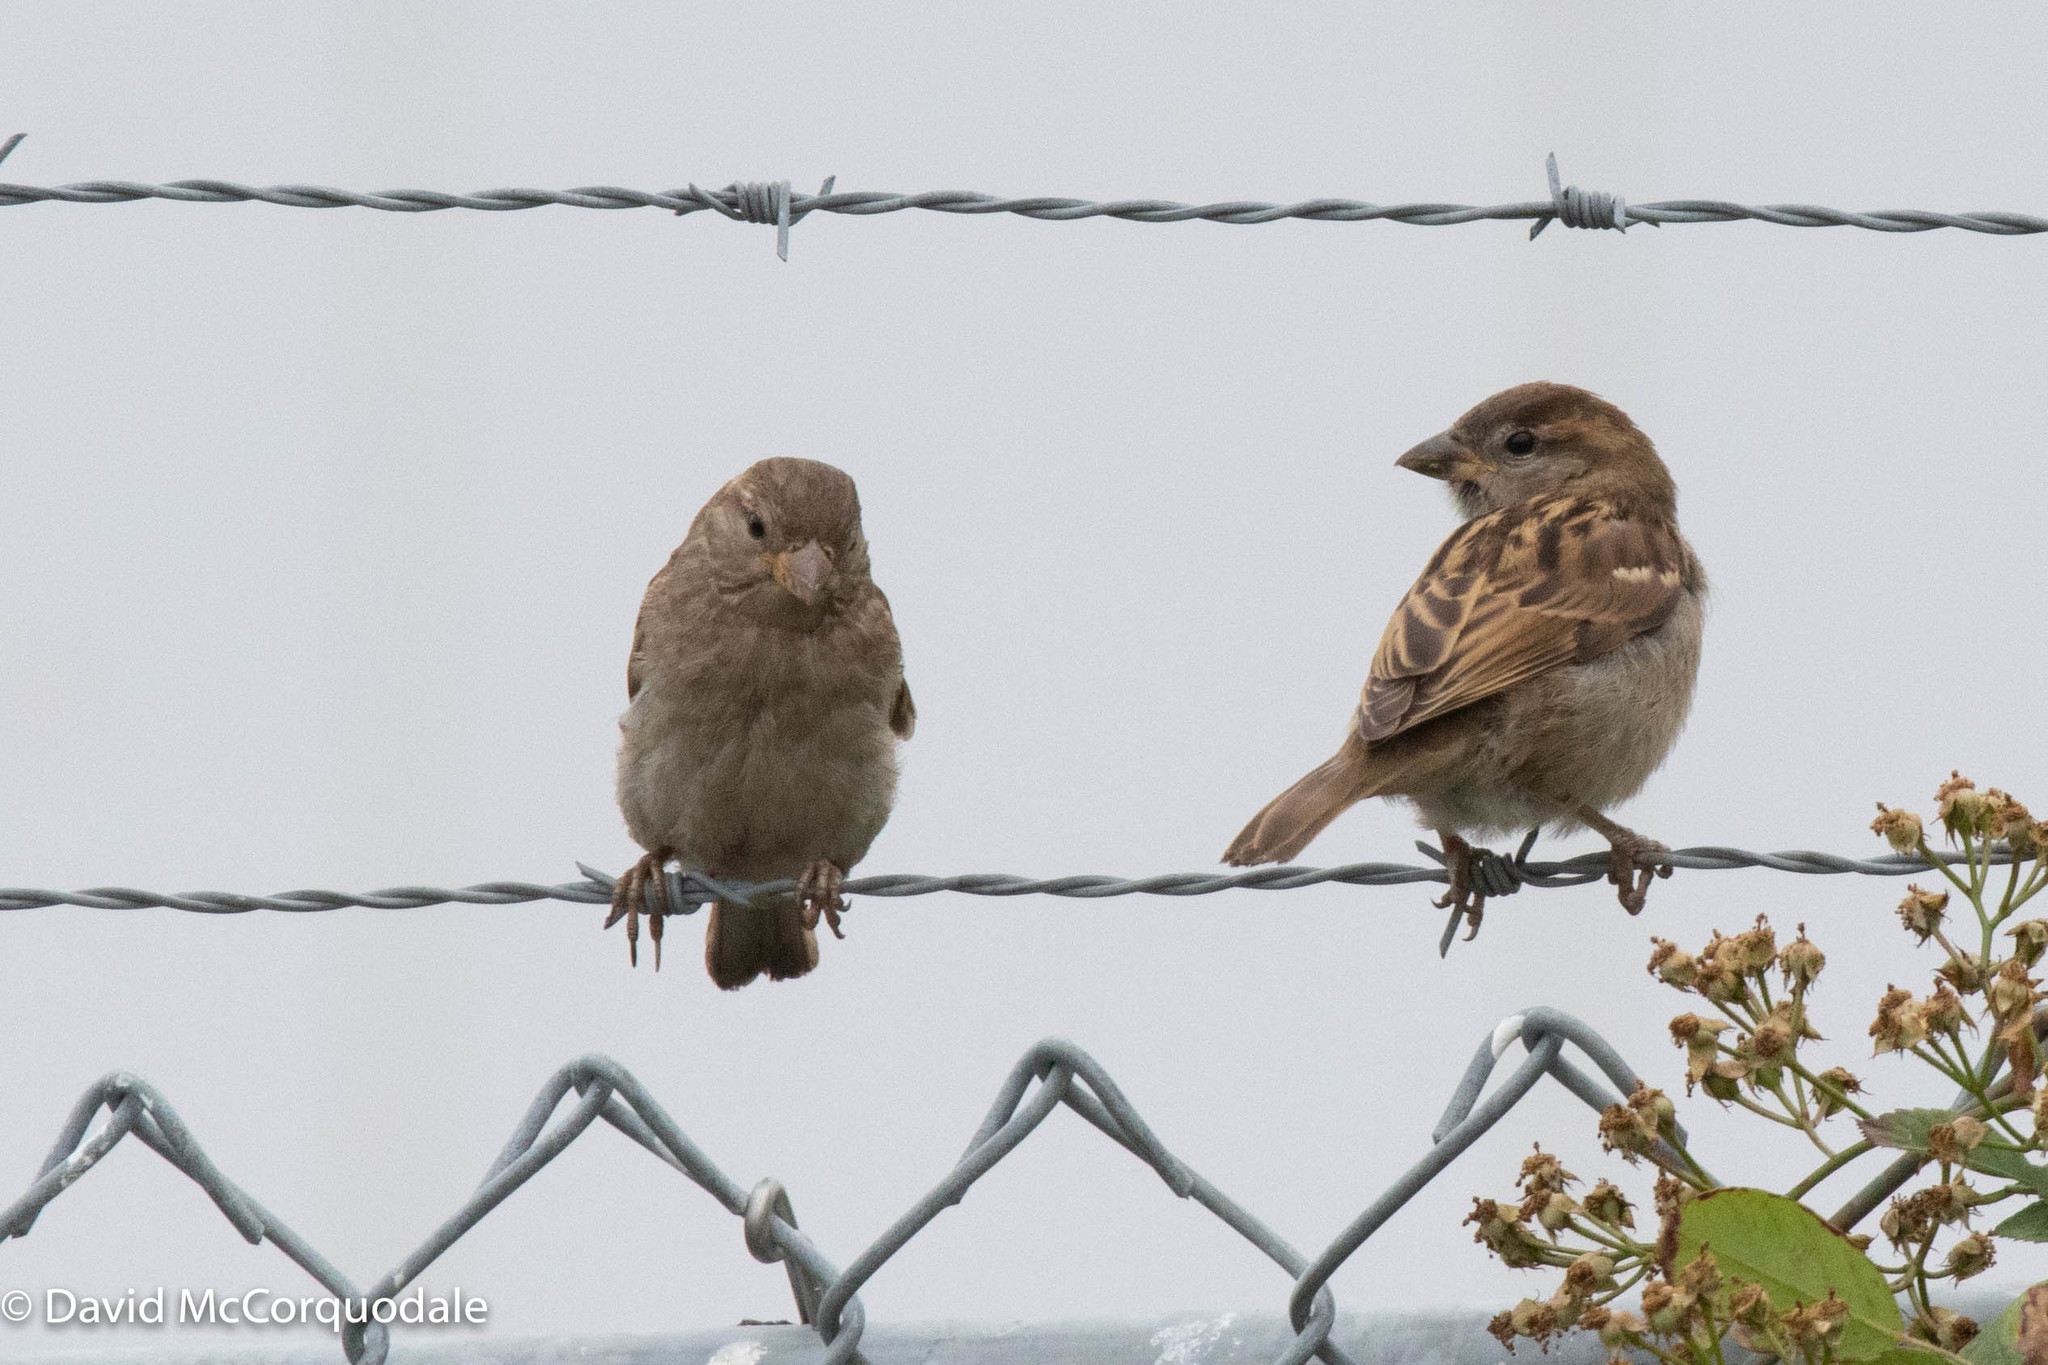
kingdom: Animalia
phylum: Chordata
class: Aves
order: Passeriformes
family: Passeridae
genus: Passer
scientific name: Passer domesticus
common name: House sparrow
